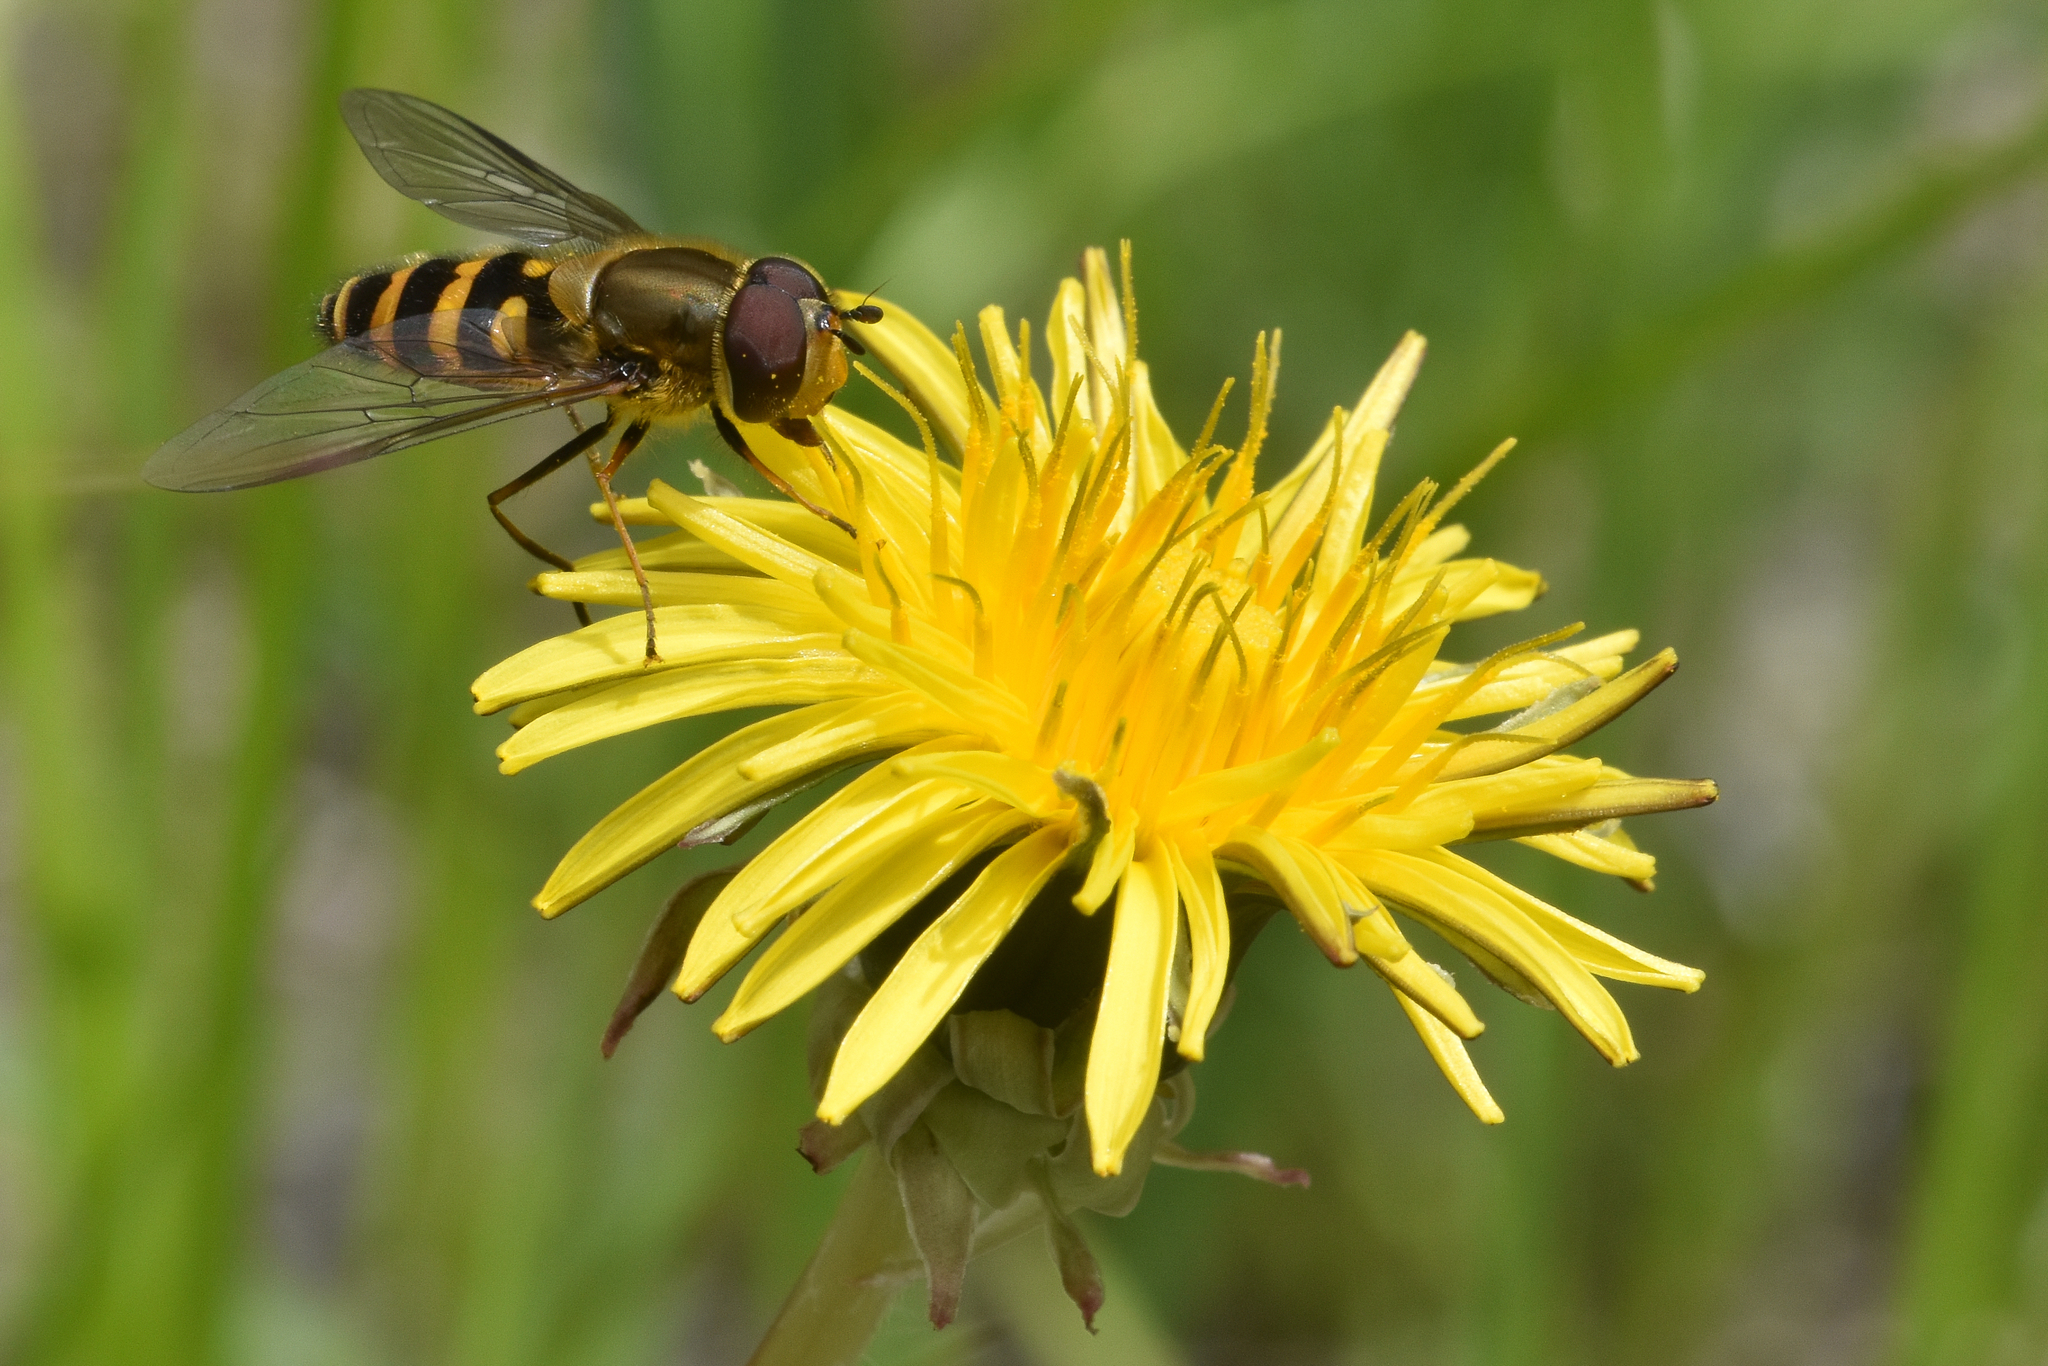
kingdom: Animalia
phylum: Arthropoda
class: Insecta
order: Diptera
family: Syrphidae
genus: Syrphus
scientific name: Syrphus torvus
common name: Hairy-eyed flower fly
